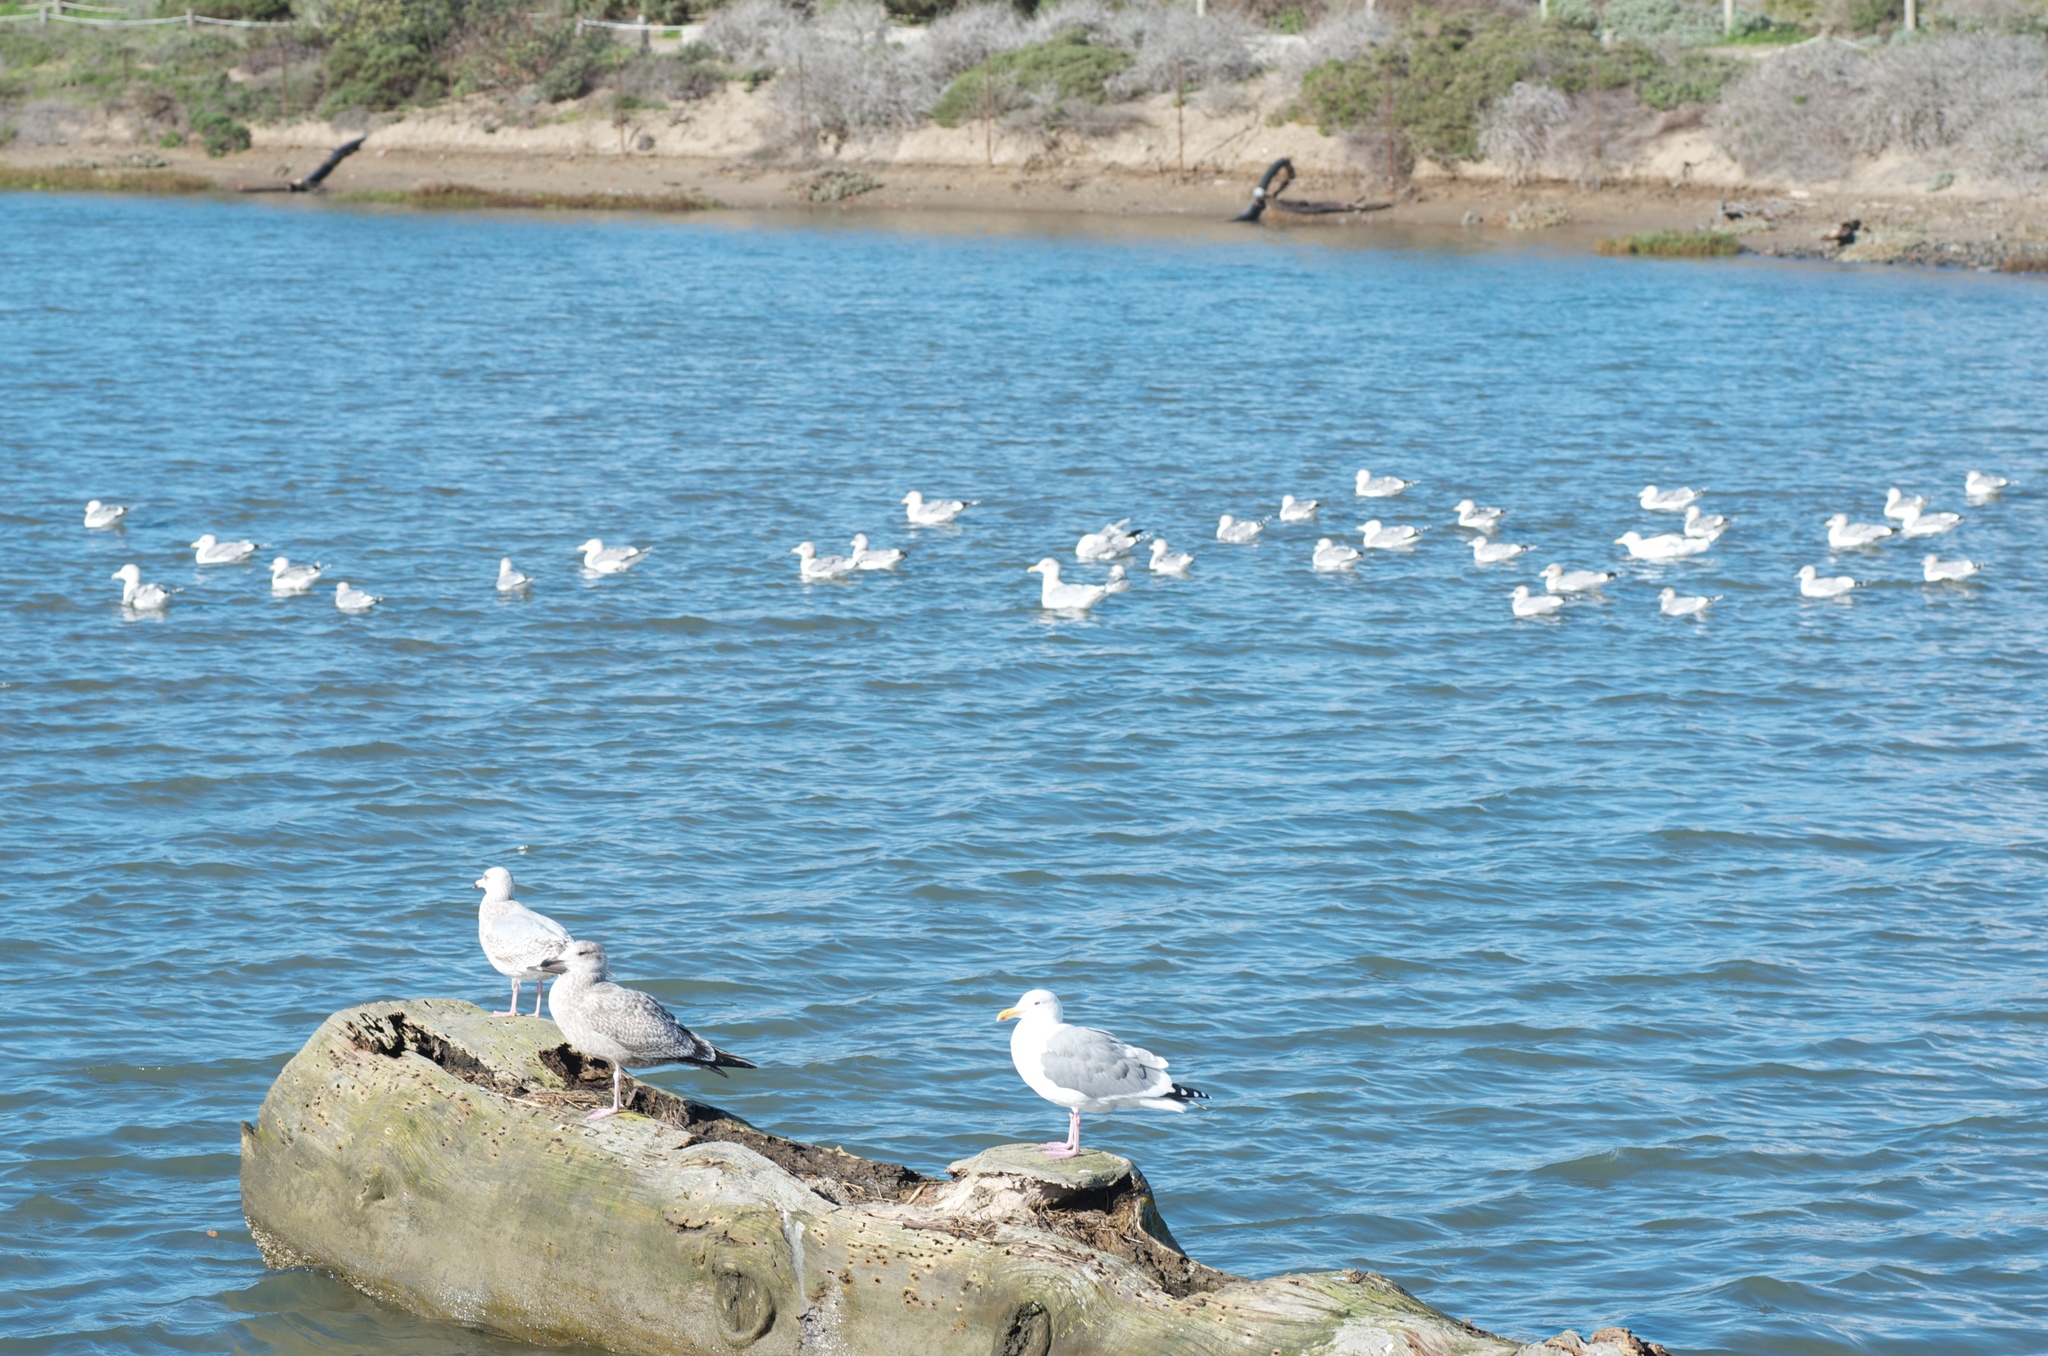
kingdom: Animalia
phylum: Chordata
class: Aves
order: Charadriiformes
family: Laridae
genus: Larus
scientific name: Larus argentatus
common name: Herring gull
